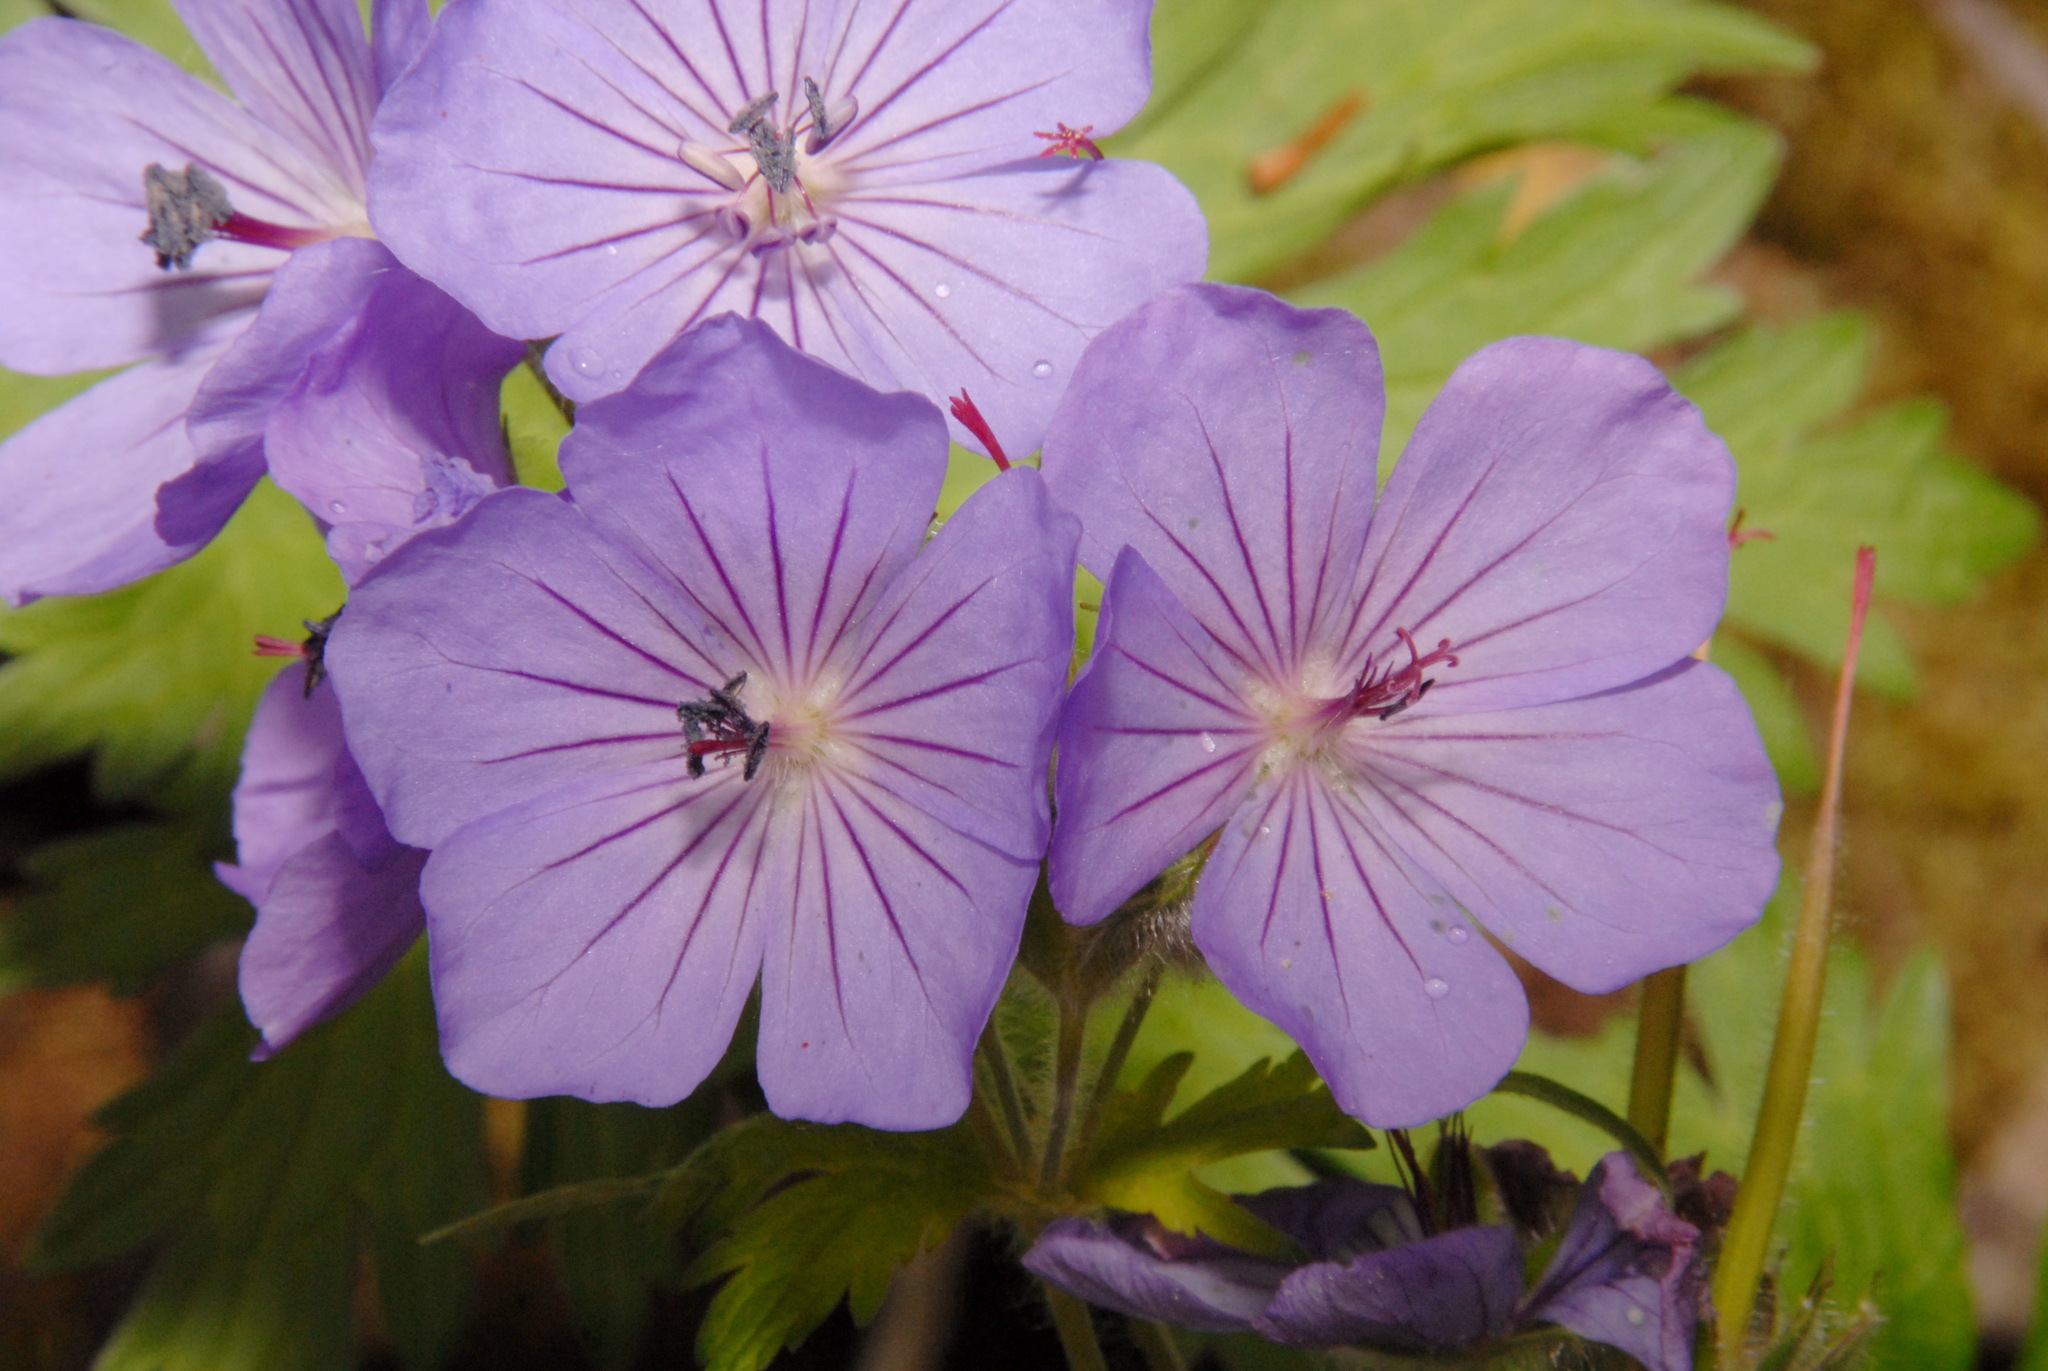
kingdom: Plantae
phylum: Tracheophyta
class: Magnoliopsida
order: Geraniales
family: Geraniaceae
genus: Geranium
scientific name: Geranium erianthum
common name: Northern crane's-bill
